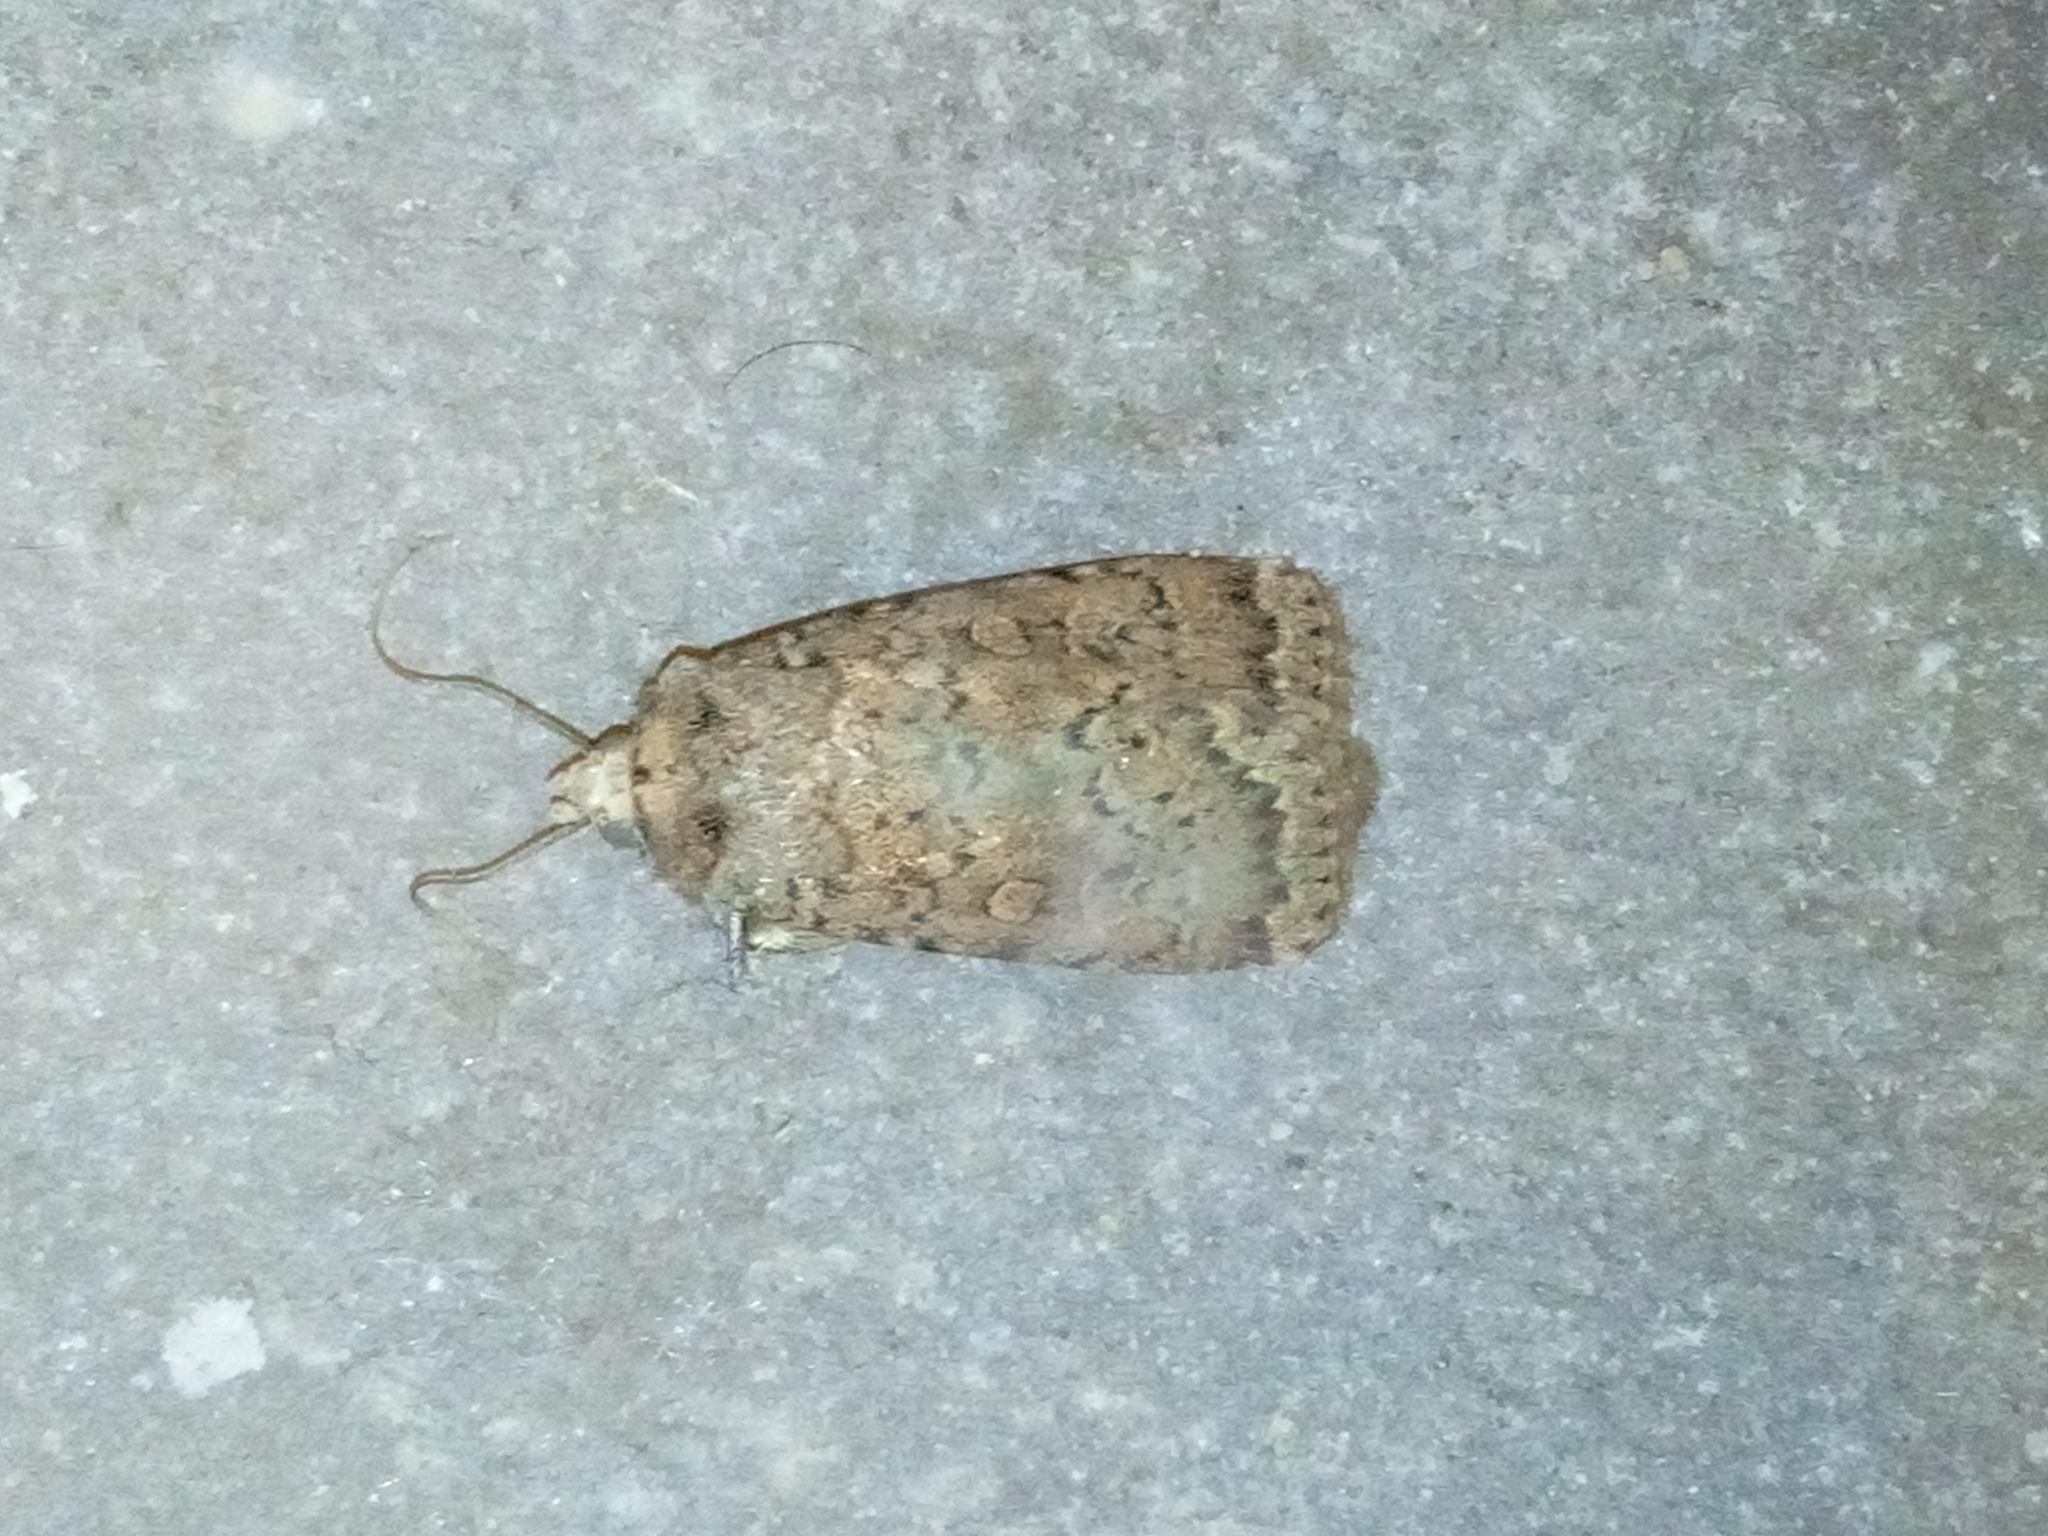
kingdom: Animalia
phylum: Arthropoda
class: Insecta
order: Lepidoptera
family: Noctuidae
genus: Rhyacia
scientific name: Rhyacia simulans
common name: Dotted rustic
